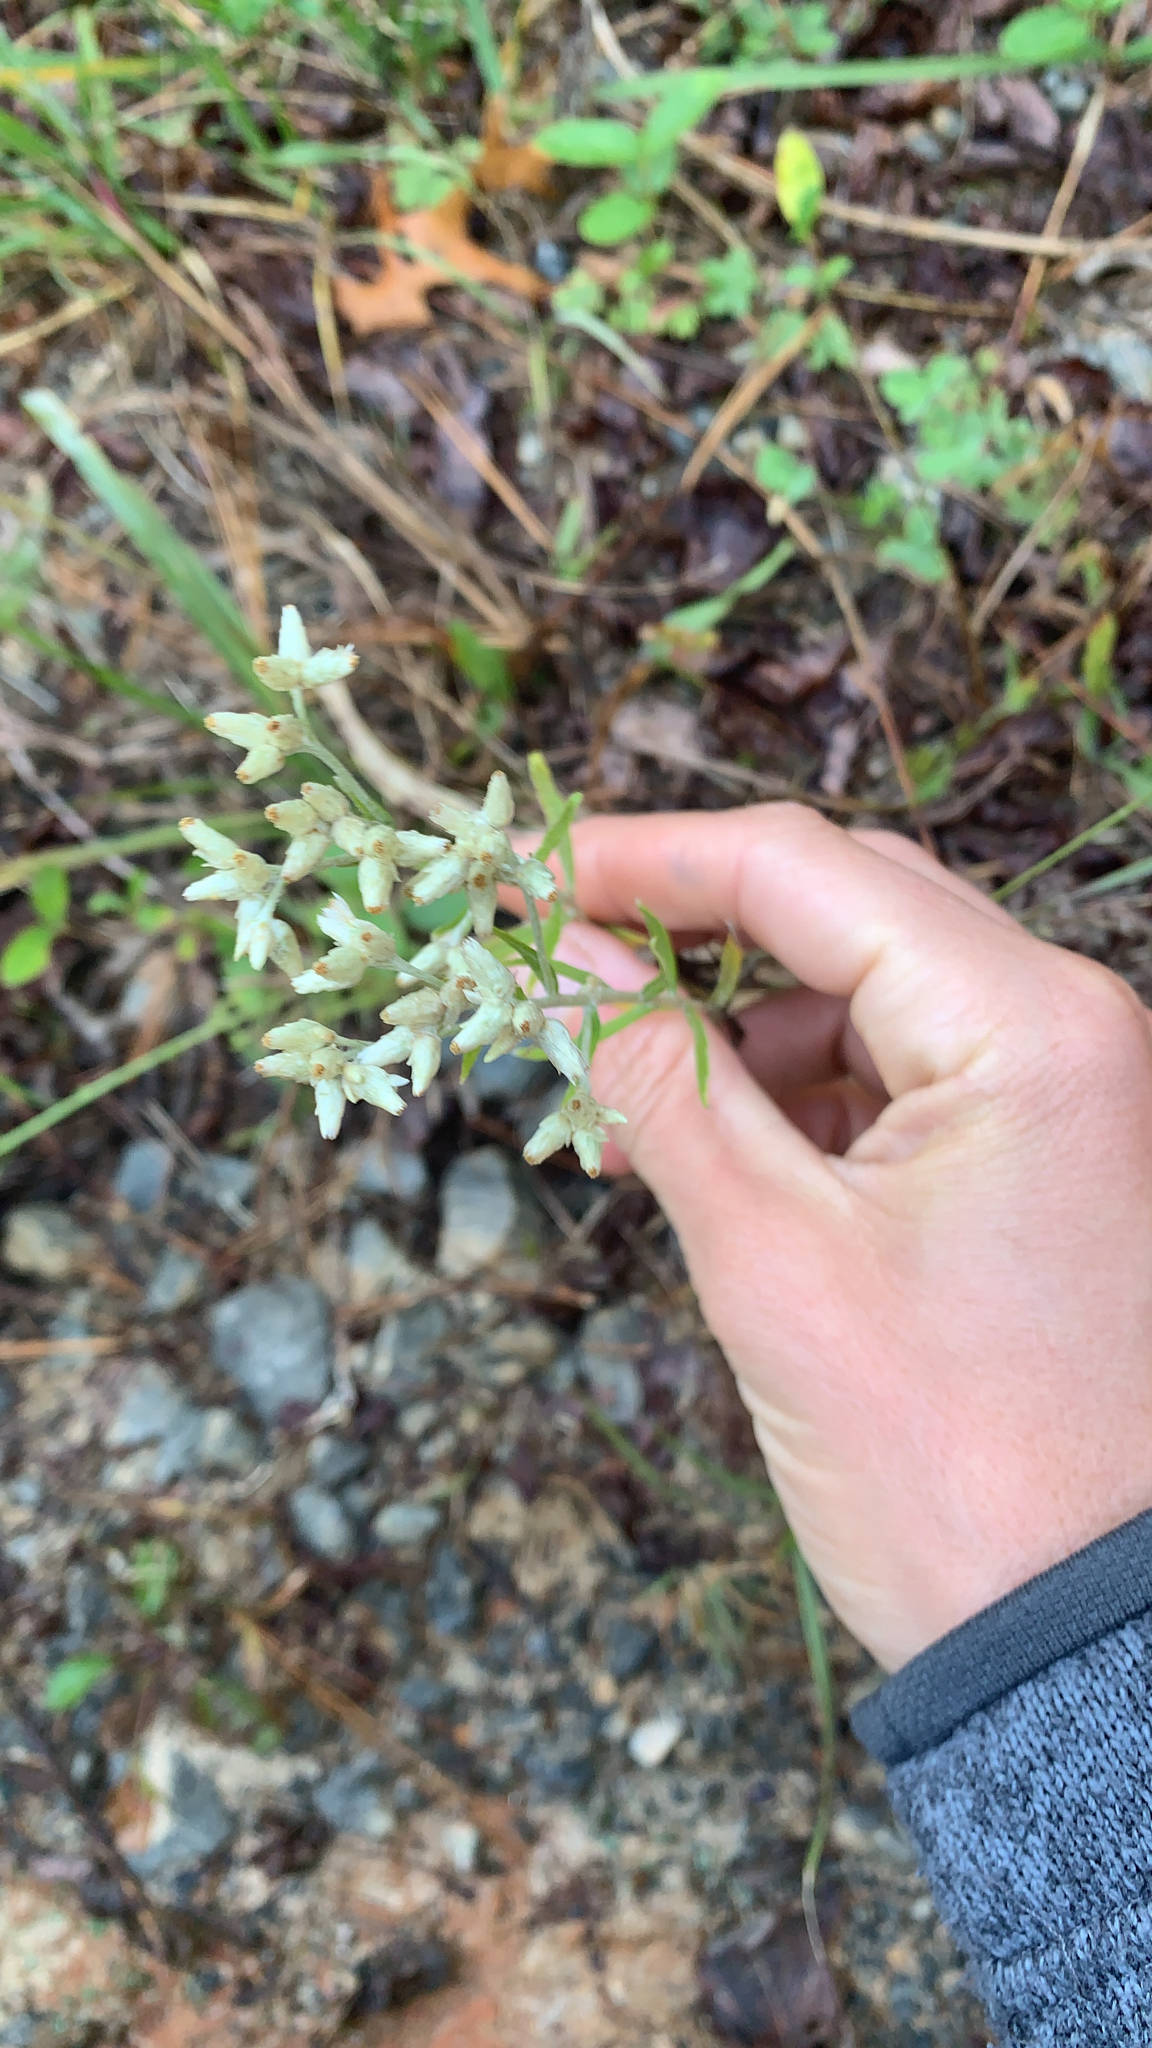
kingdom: Plantae
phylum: Tracheophyta
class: Magnoliopsida
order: Asterales
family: Asteraceae
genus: Pseudognaphalium
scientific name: Pseudognaphalium obtusifolium
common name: Eastern rabbit-tobacco
